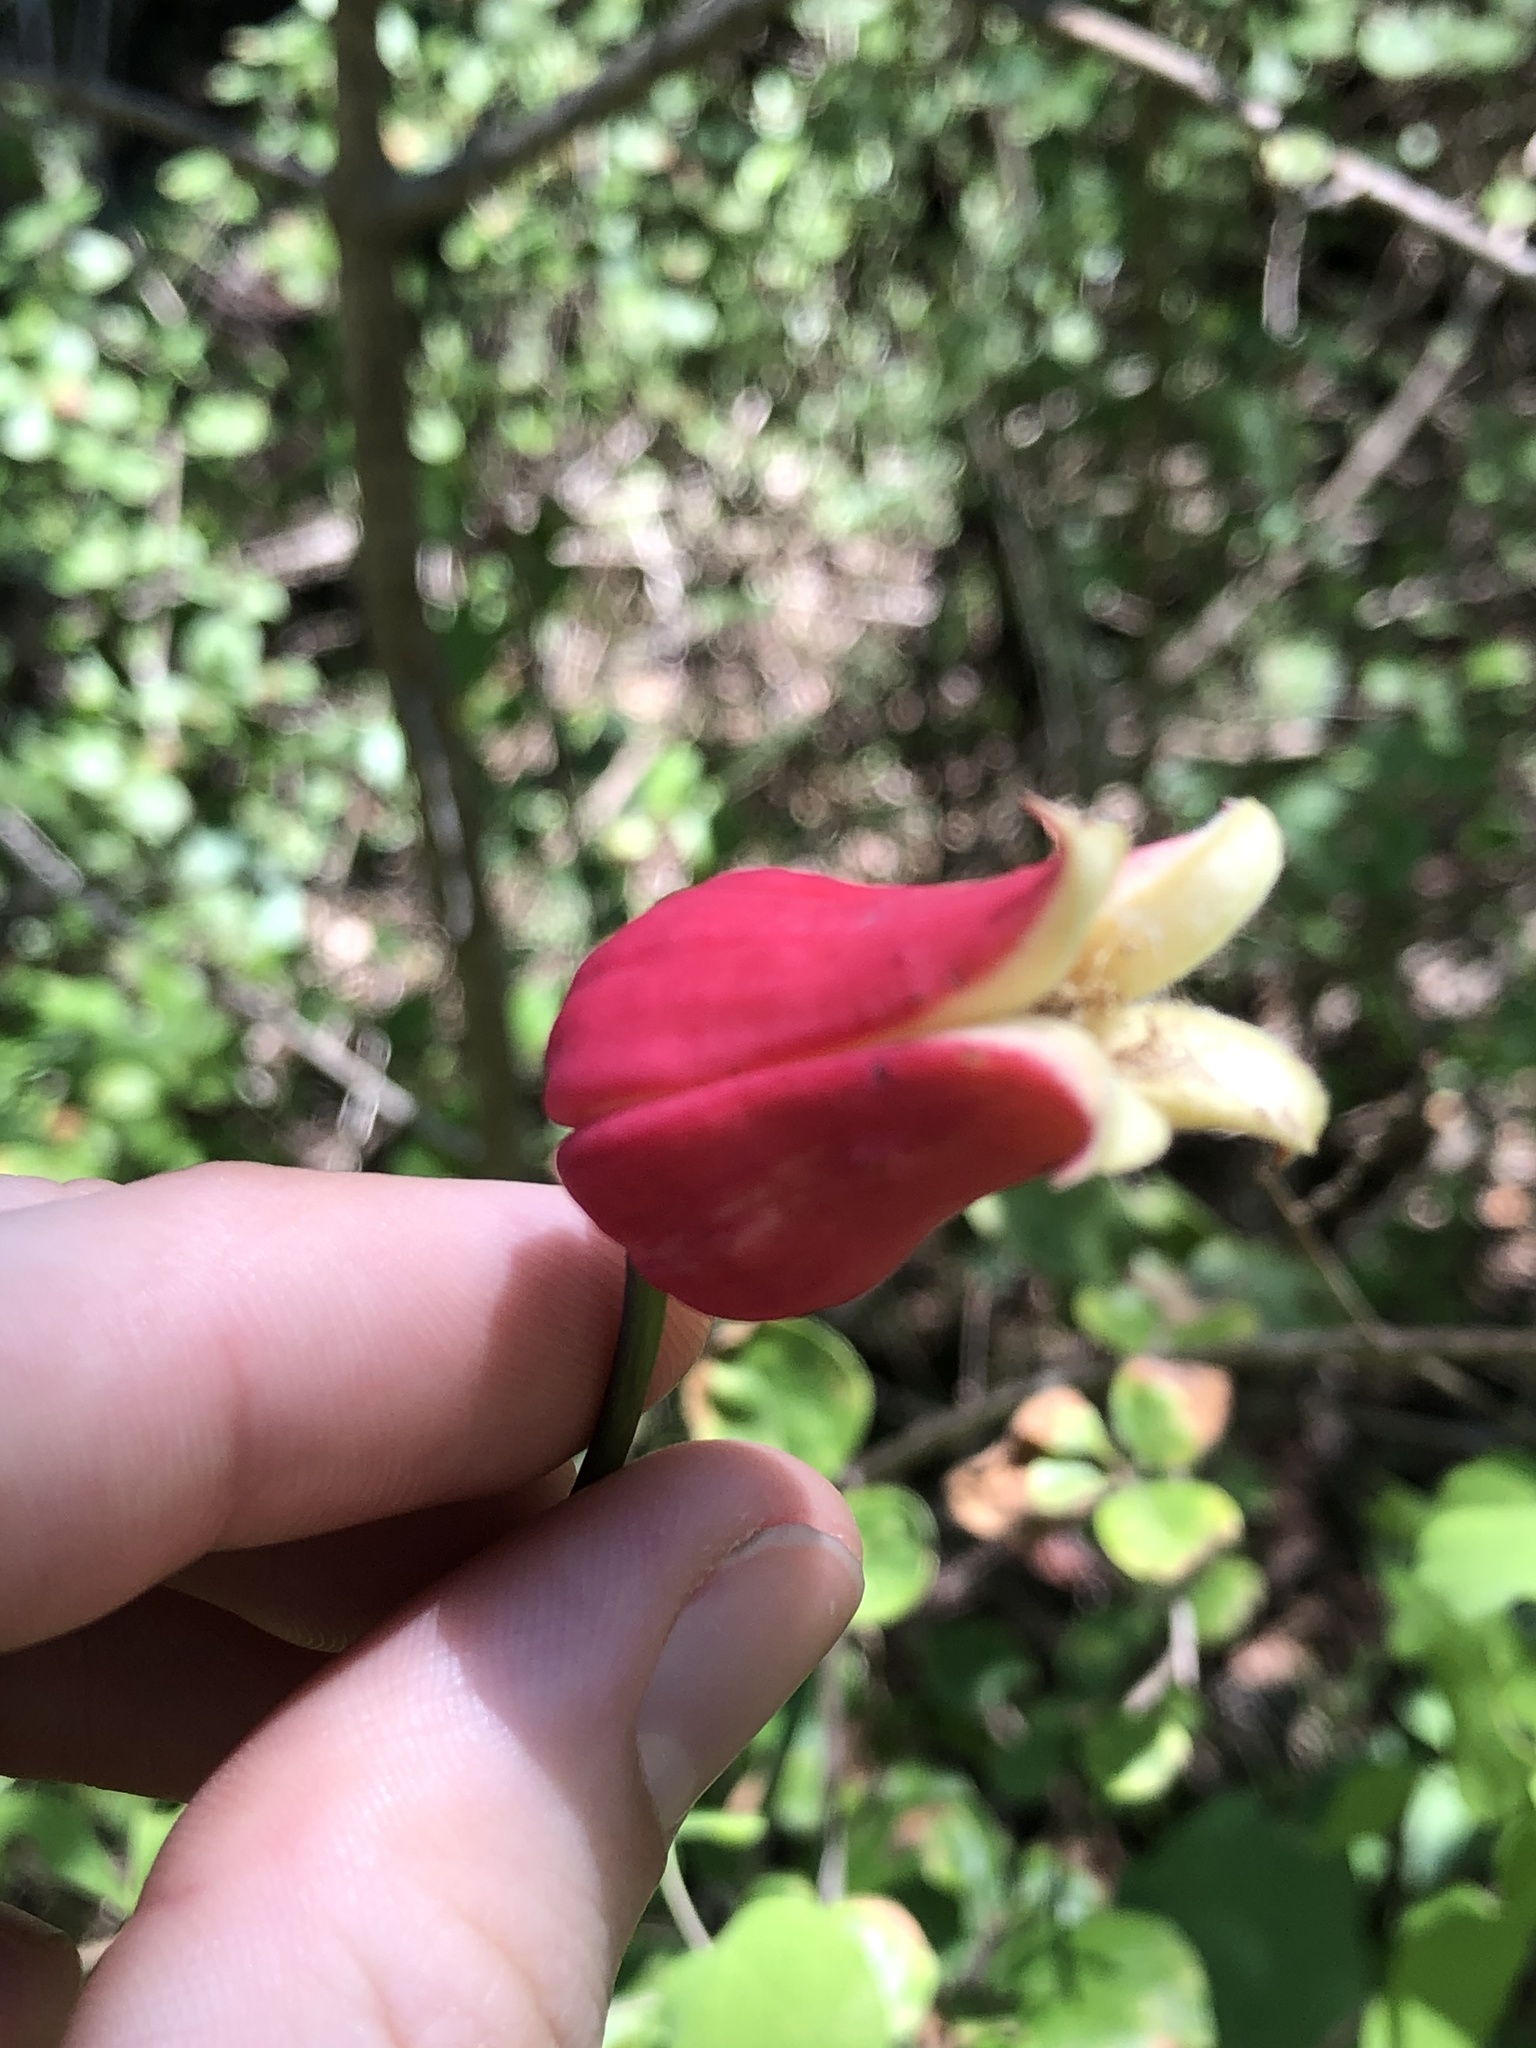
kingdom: Plantae
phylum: Tracheophyta
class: Magnoliopsida
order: Ranunculales
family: Ranunculaceae
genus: Clematis
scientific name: Clematis texensis
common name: Crimson clematis
